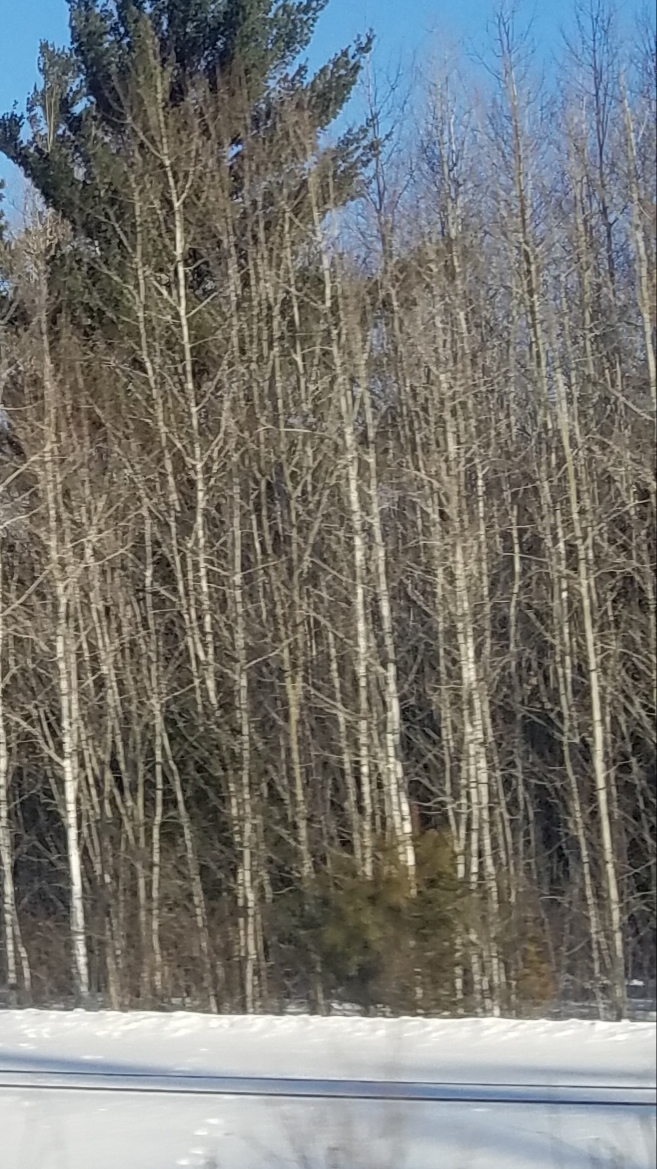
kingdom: Plantae
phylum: Tracheophyta
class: Magnoliopsida
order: Malpighiales
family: Salicaceae
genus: Populus
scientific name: Populus tremuloides
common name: Quaking aspen
